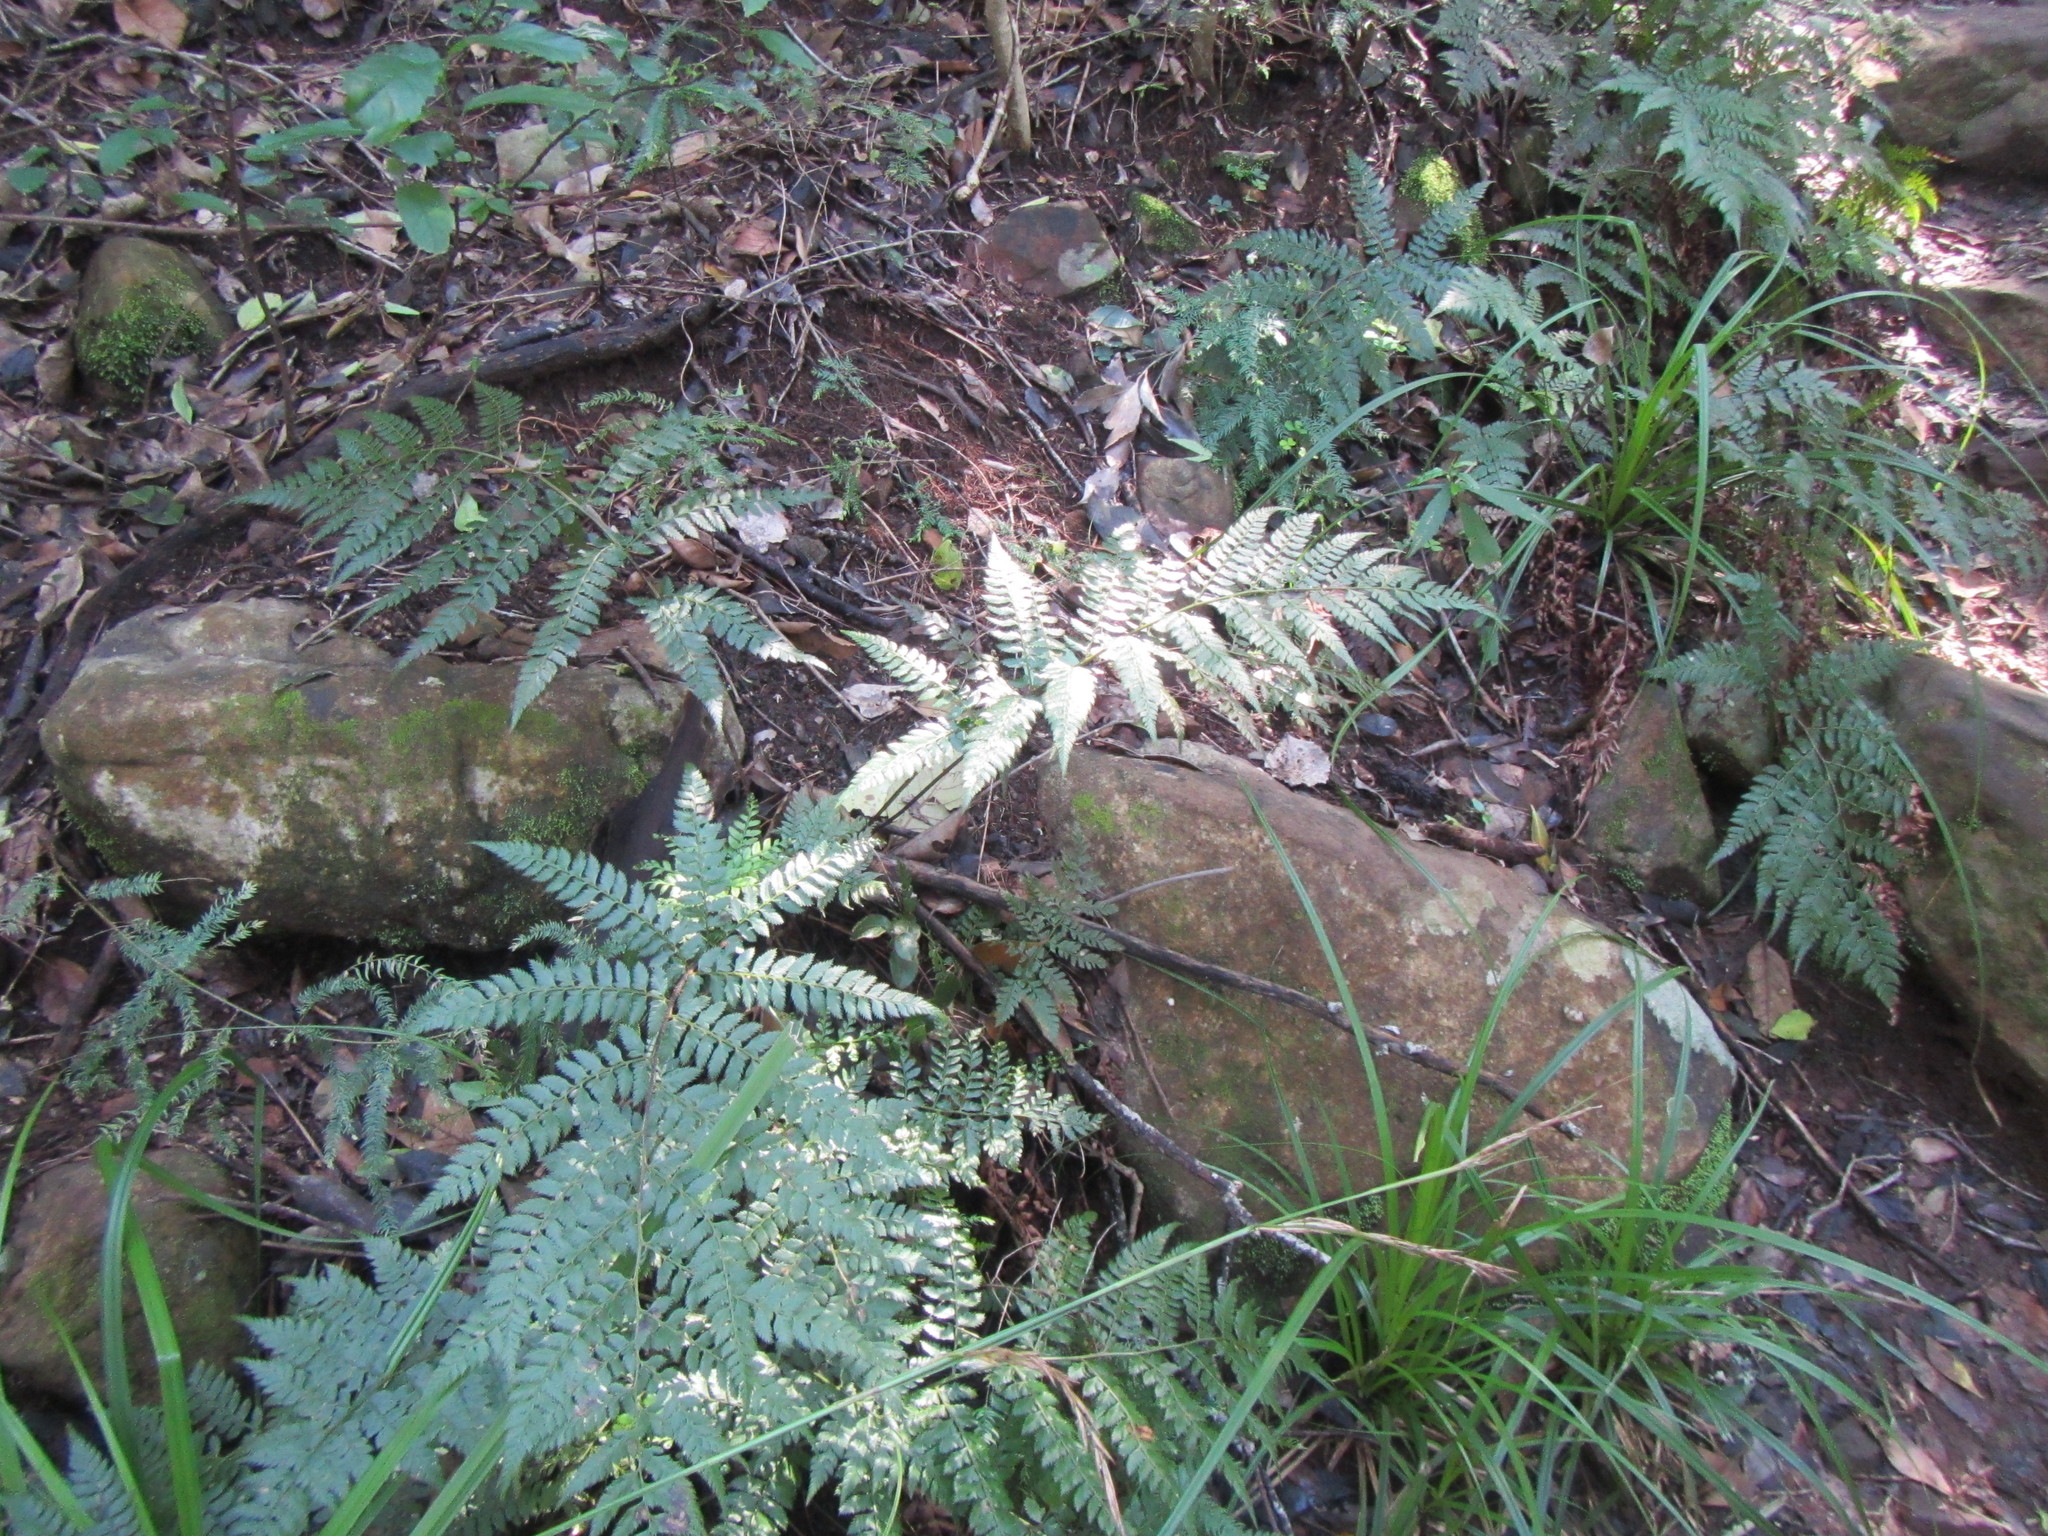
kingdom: Plantae
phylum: Tracheophyta
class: Polypodiopsida
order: Polypodiales
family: Dryopteridaceae
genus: Polystichum
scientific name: Polystichum pungens
